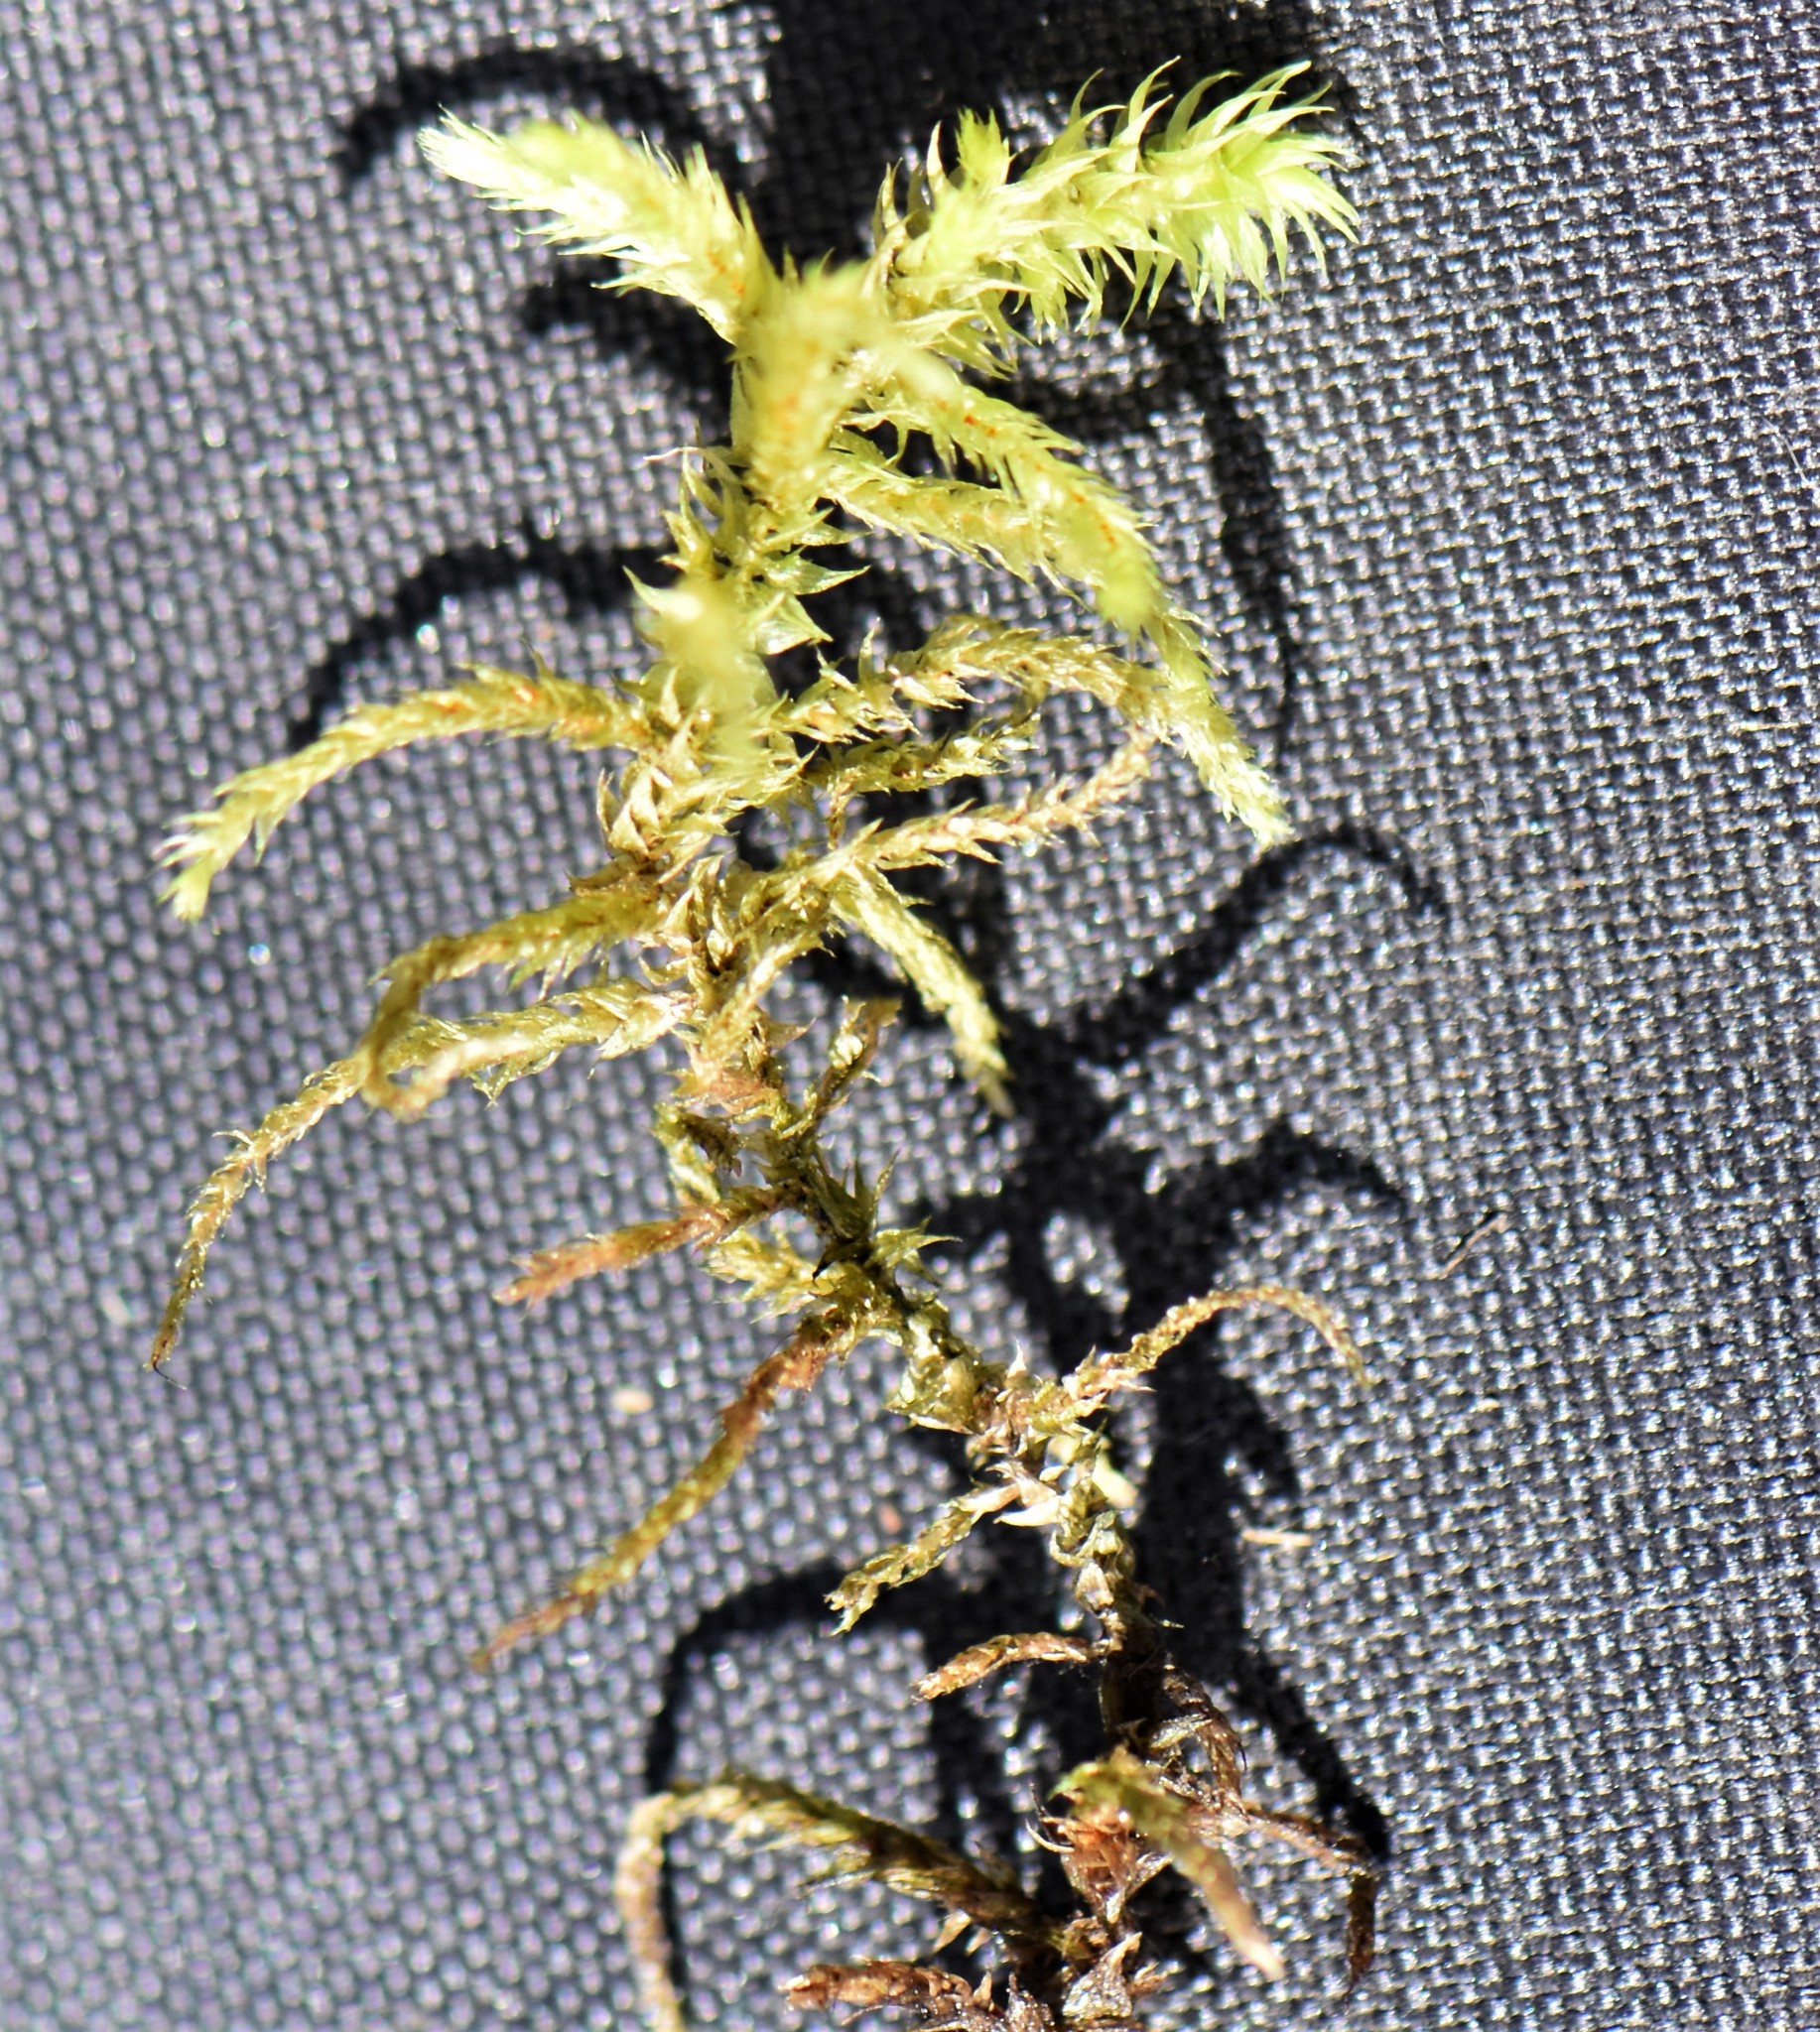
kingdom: Plantae
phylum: Bryophyta
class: Bryopsida
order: Hypnales
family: Hylocomiaceae
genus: Hylocomiadelphus
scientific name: Hylocomiadelphus triquetrus
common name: Rough goose neck moss
